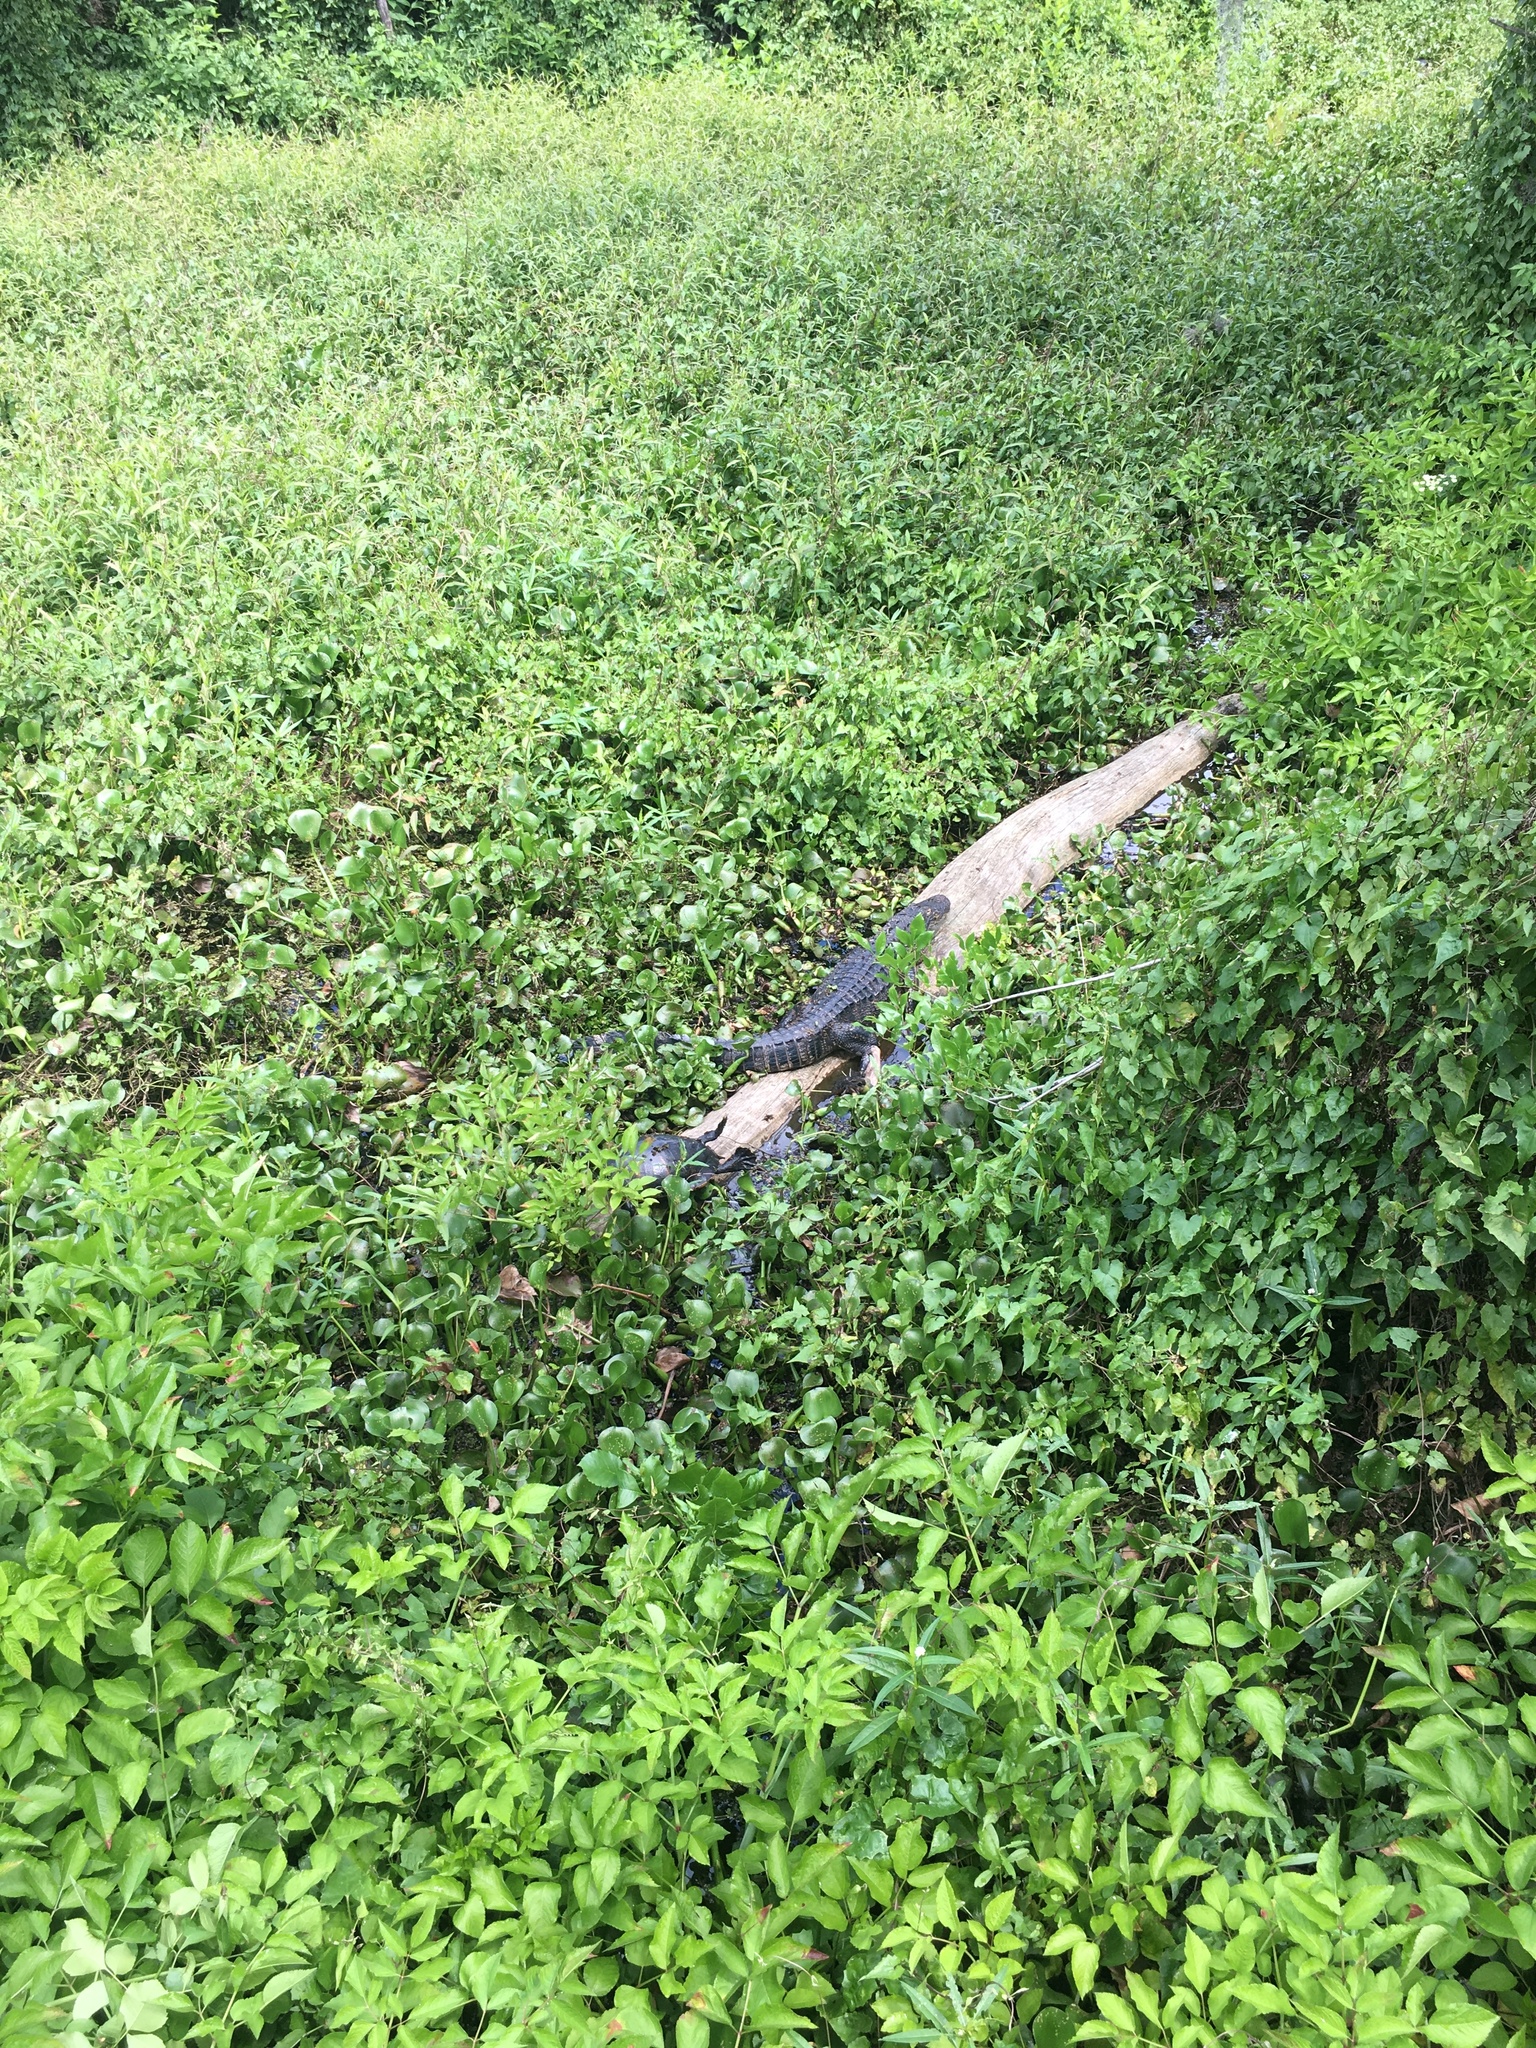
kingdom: Animalia
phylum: Chordata
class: Crocodylia
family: Alligatoridae
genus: Alligator
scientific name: Alligator mississippiensis
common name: American alligator
